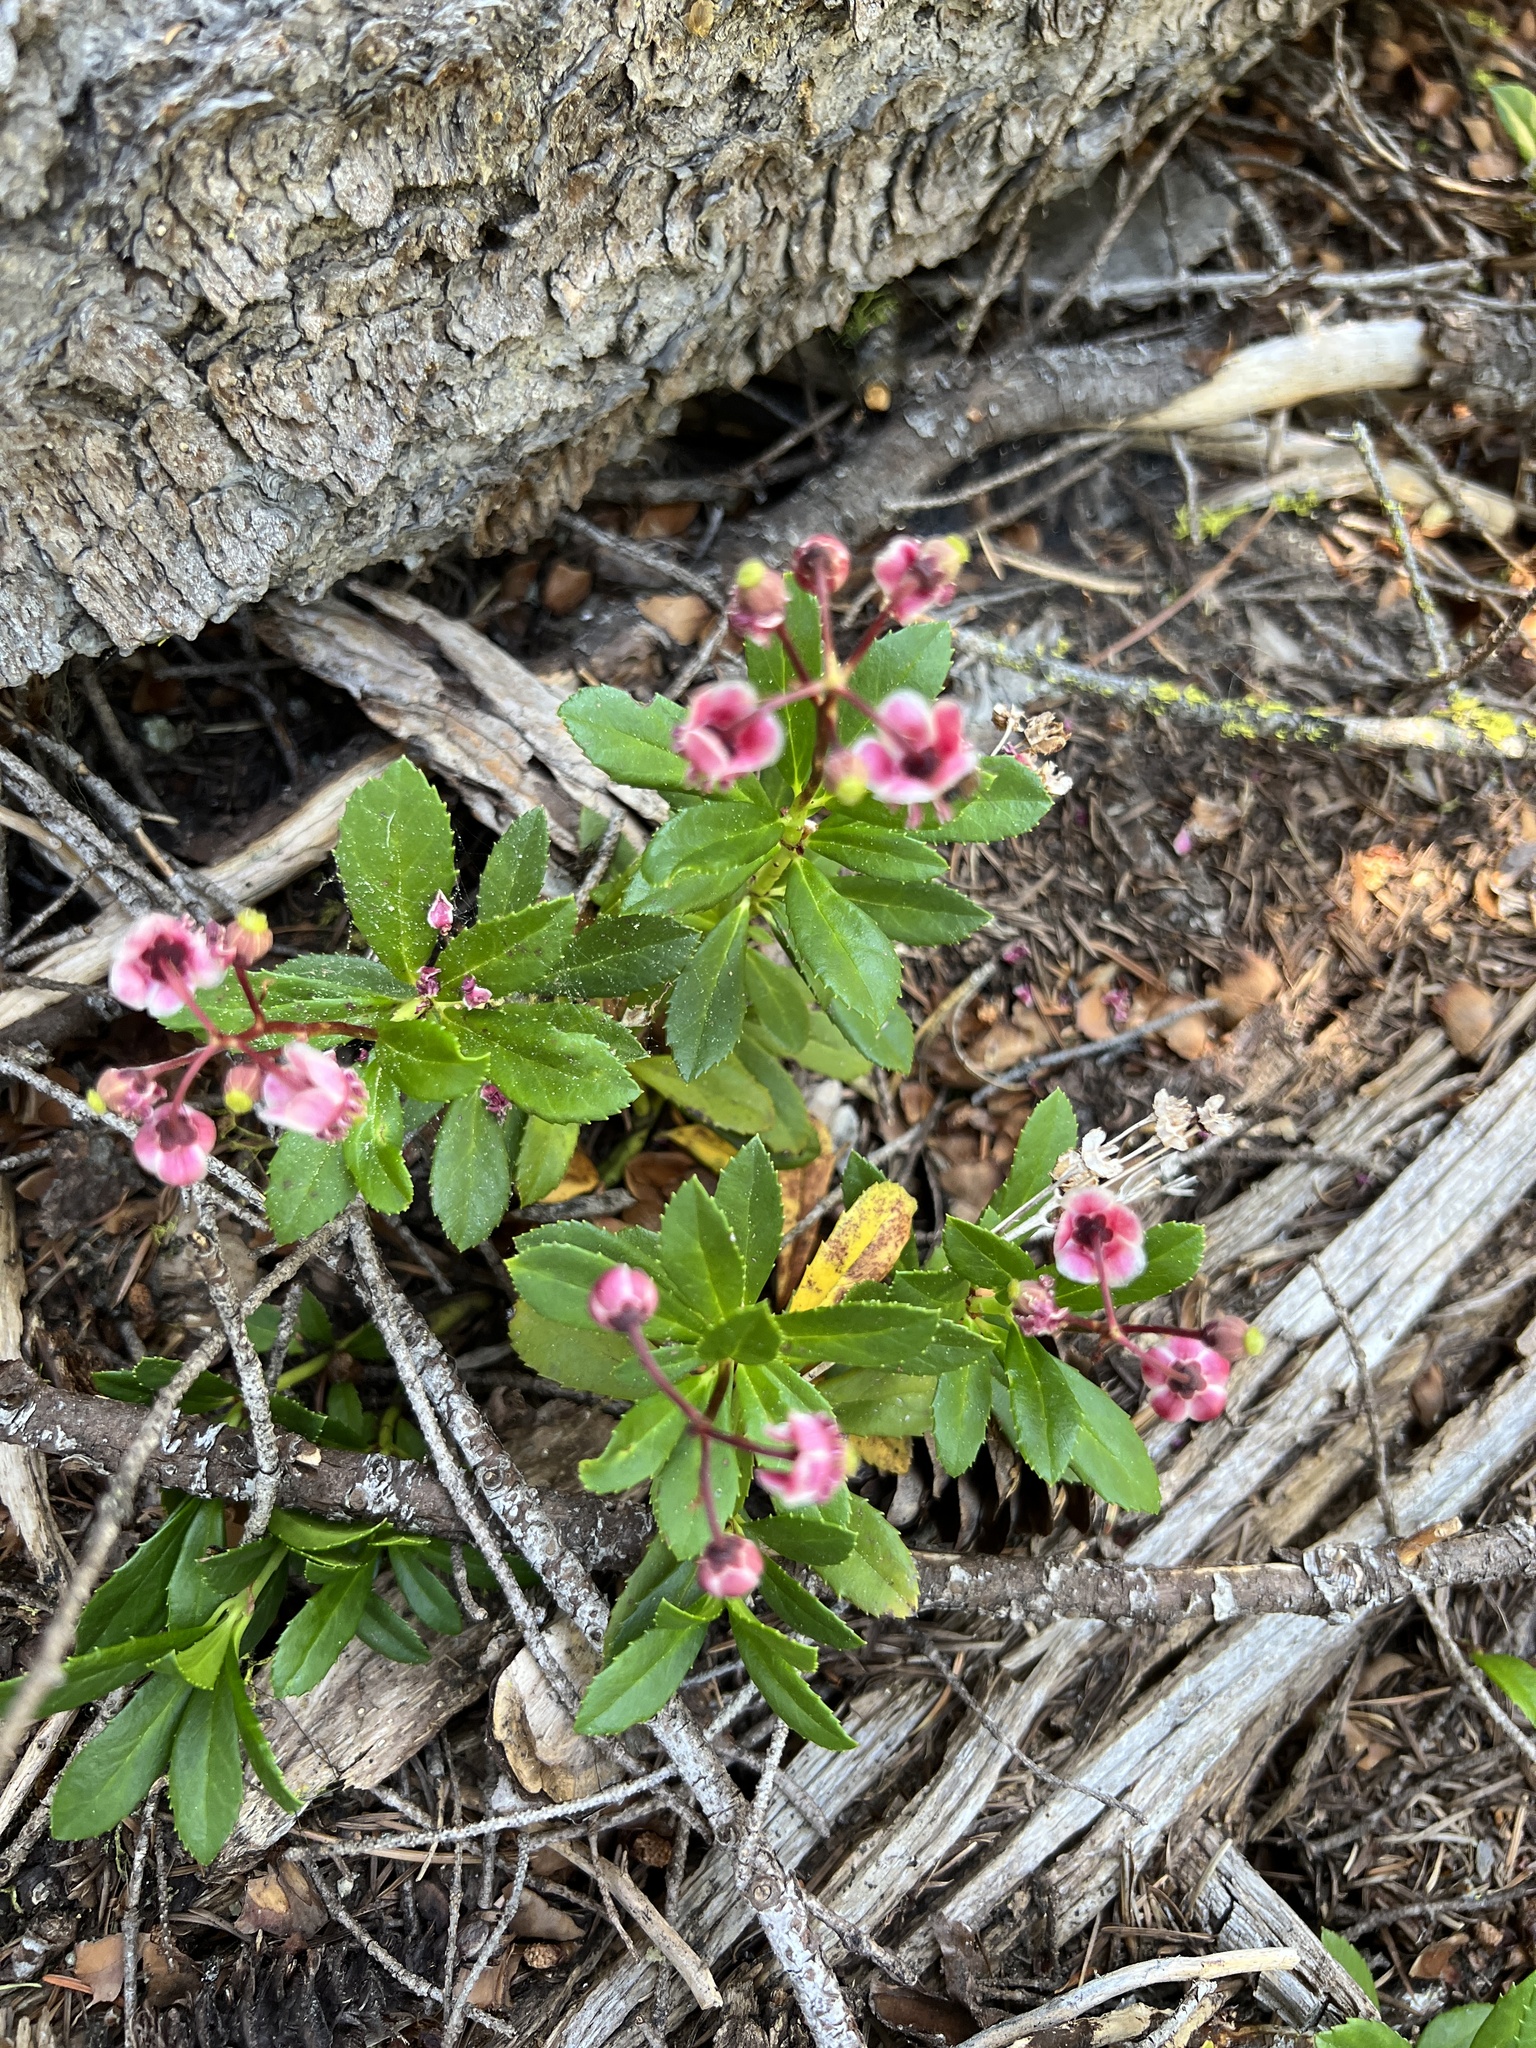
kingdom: Plantae
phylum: Tracheophyta
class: Magnoliopsida
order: Ericales
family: Ericaceae
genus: Chimaphila
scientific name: Chimaphila umbellata
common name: Pipsissewa
